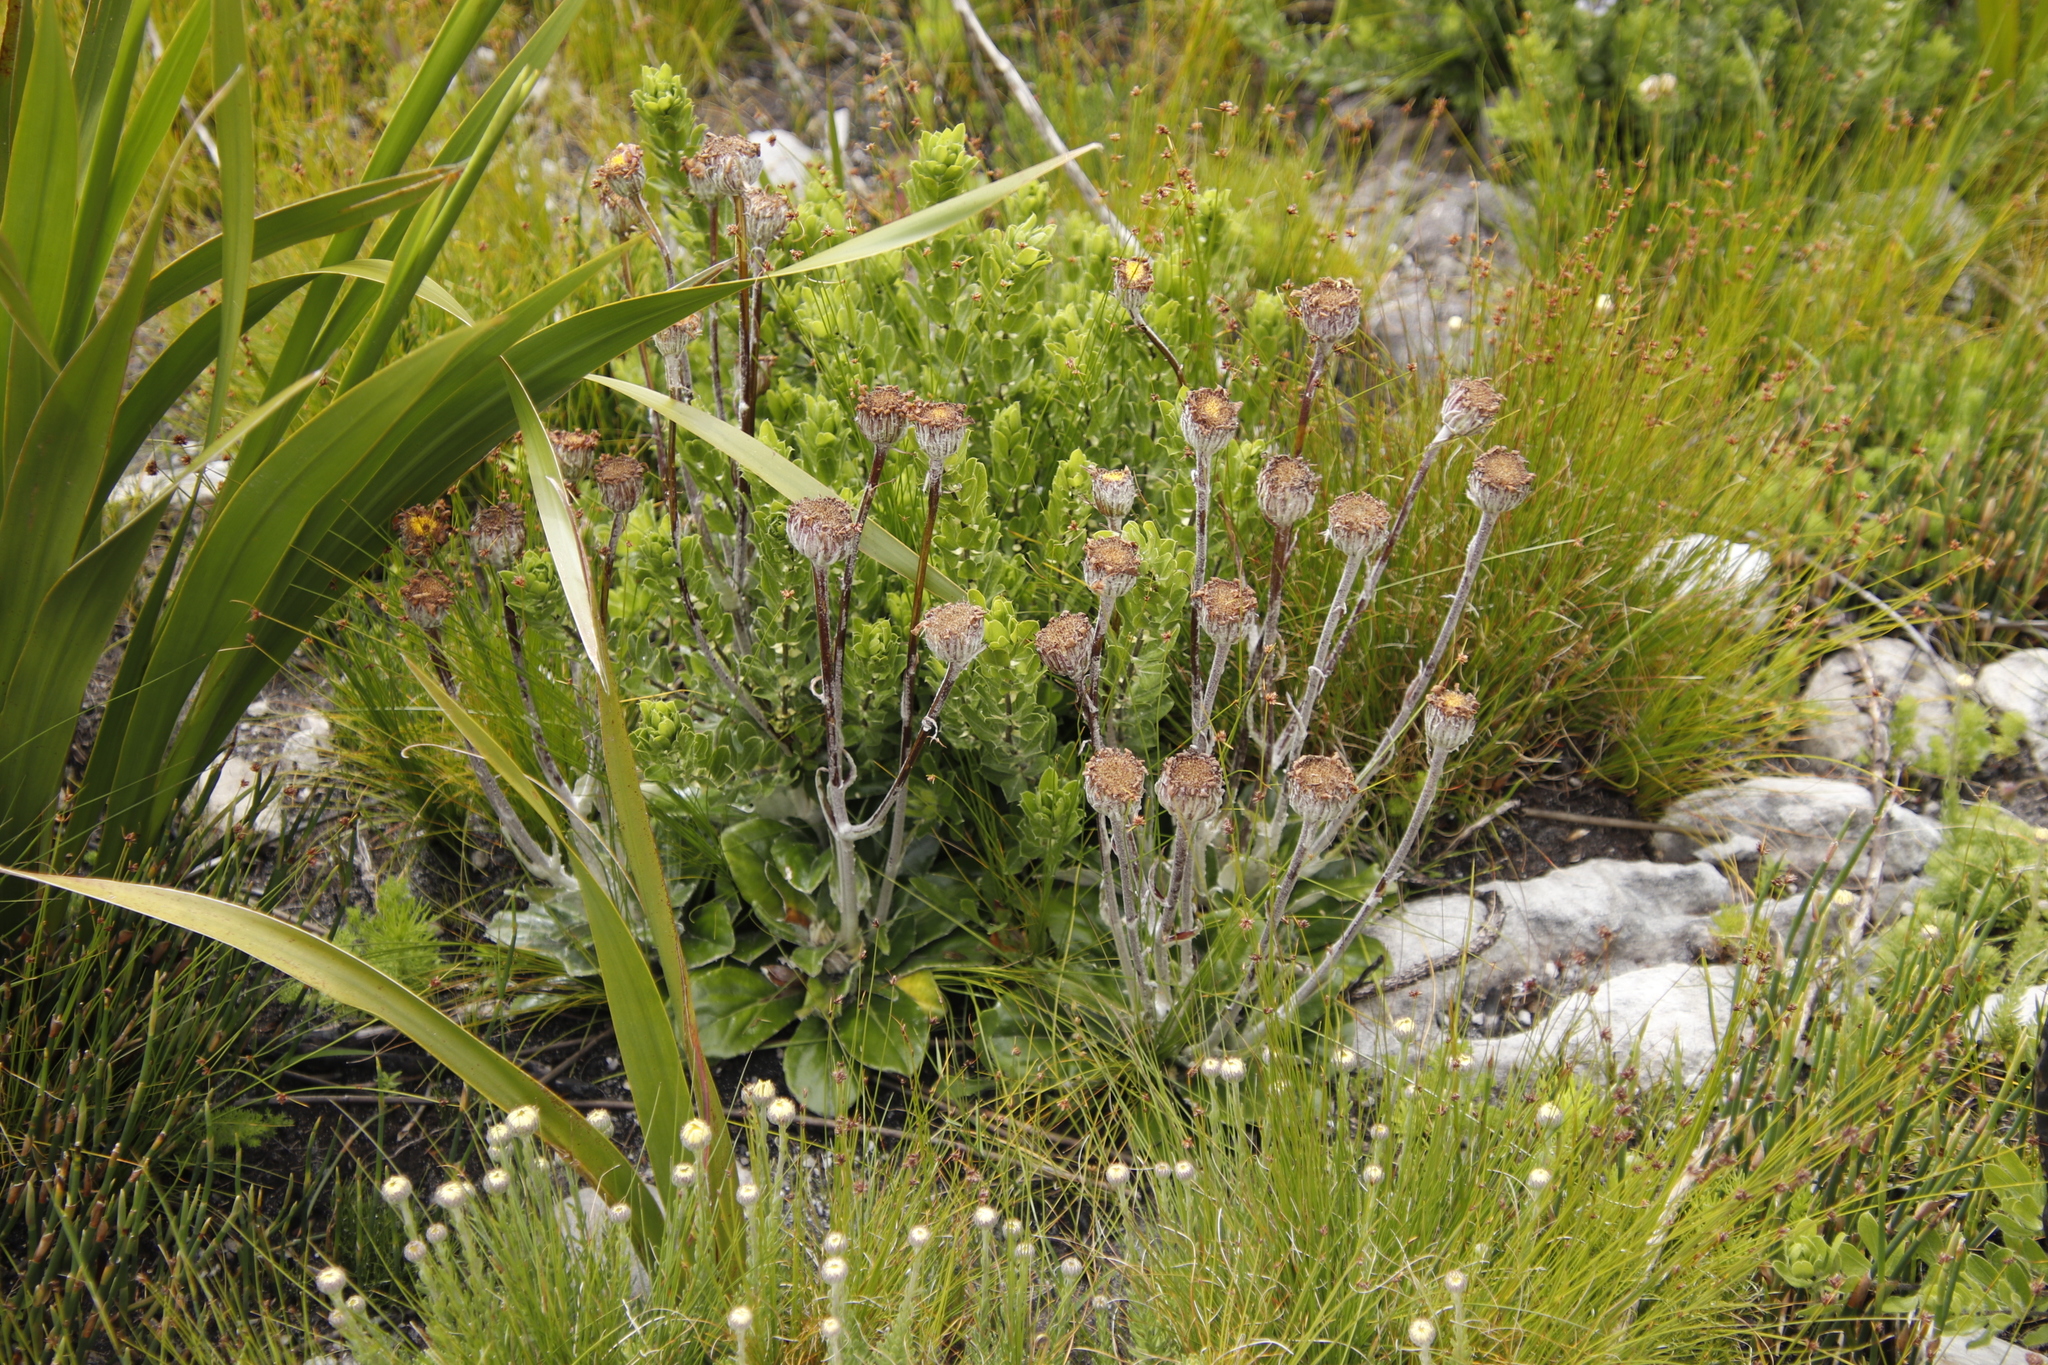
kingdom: Plantae
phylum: Tracheophyta
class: Magnoliopsida
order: Asterales
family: Asteraceae
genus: Mairia
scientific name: Mairia robusta
